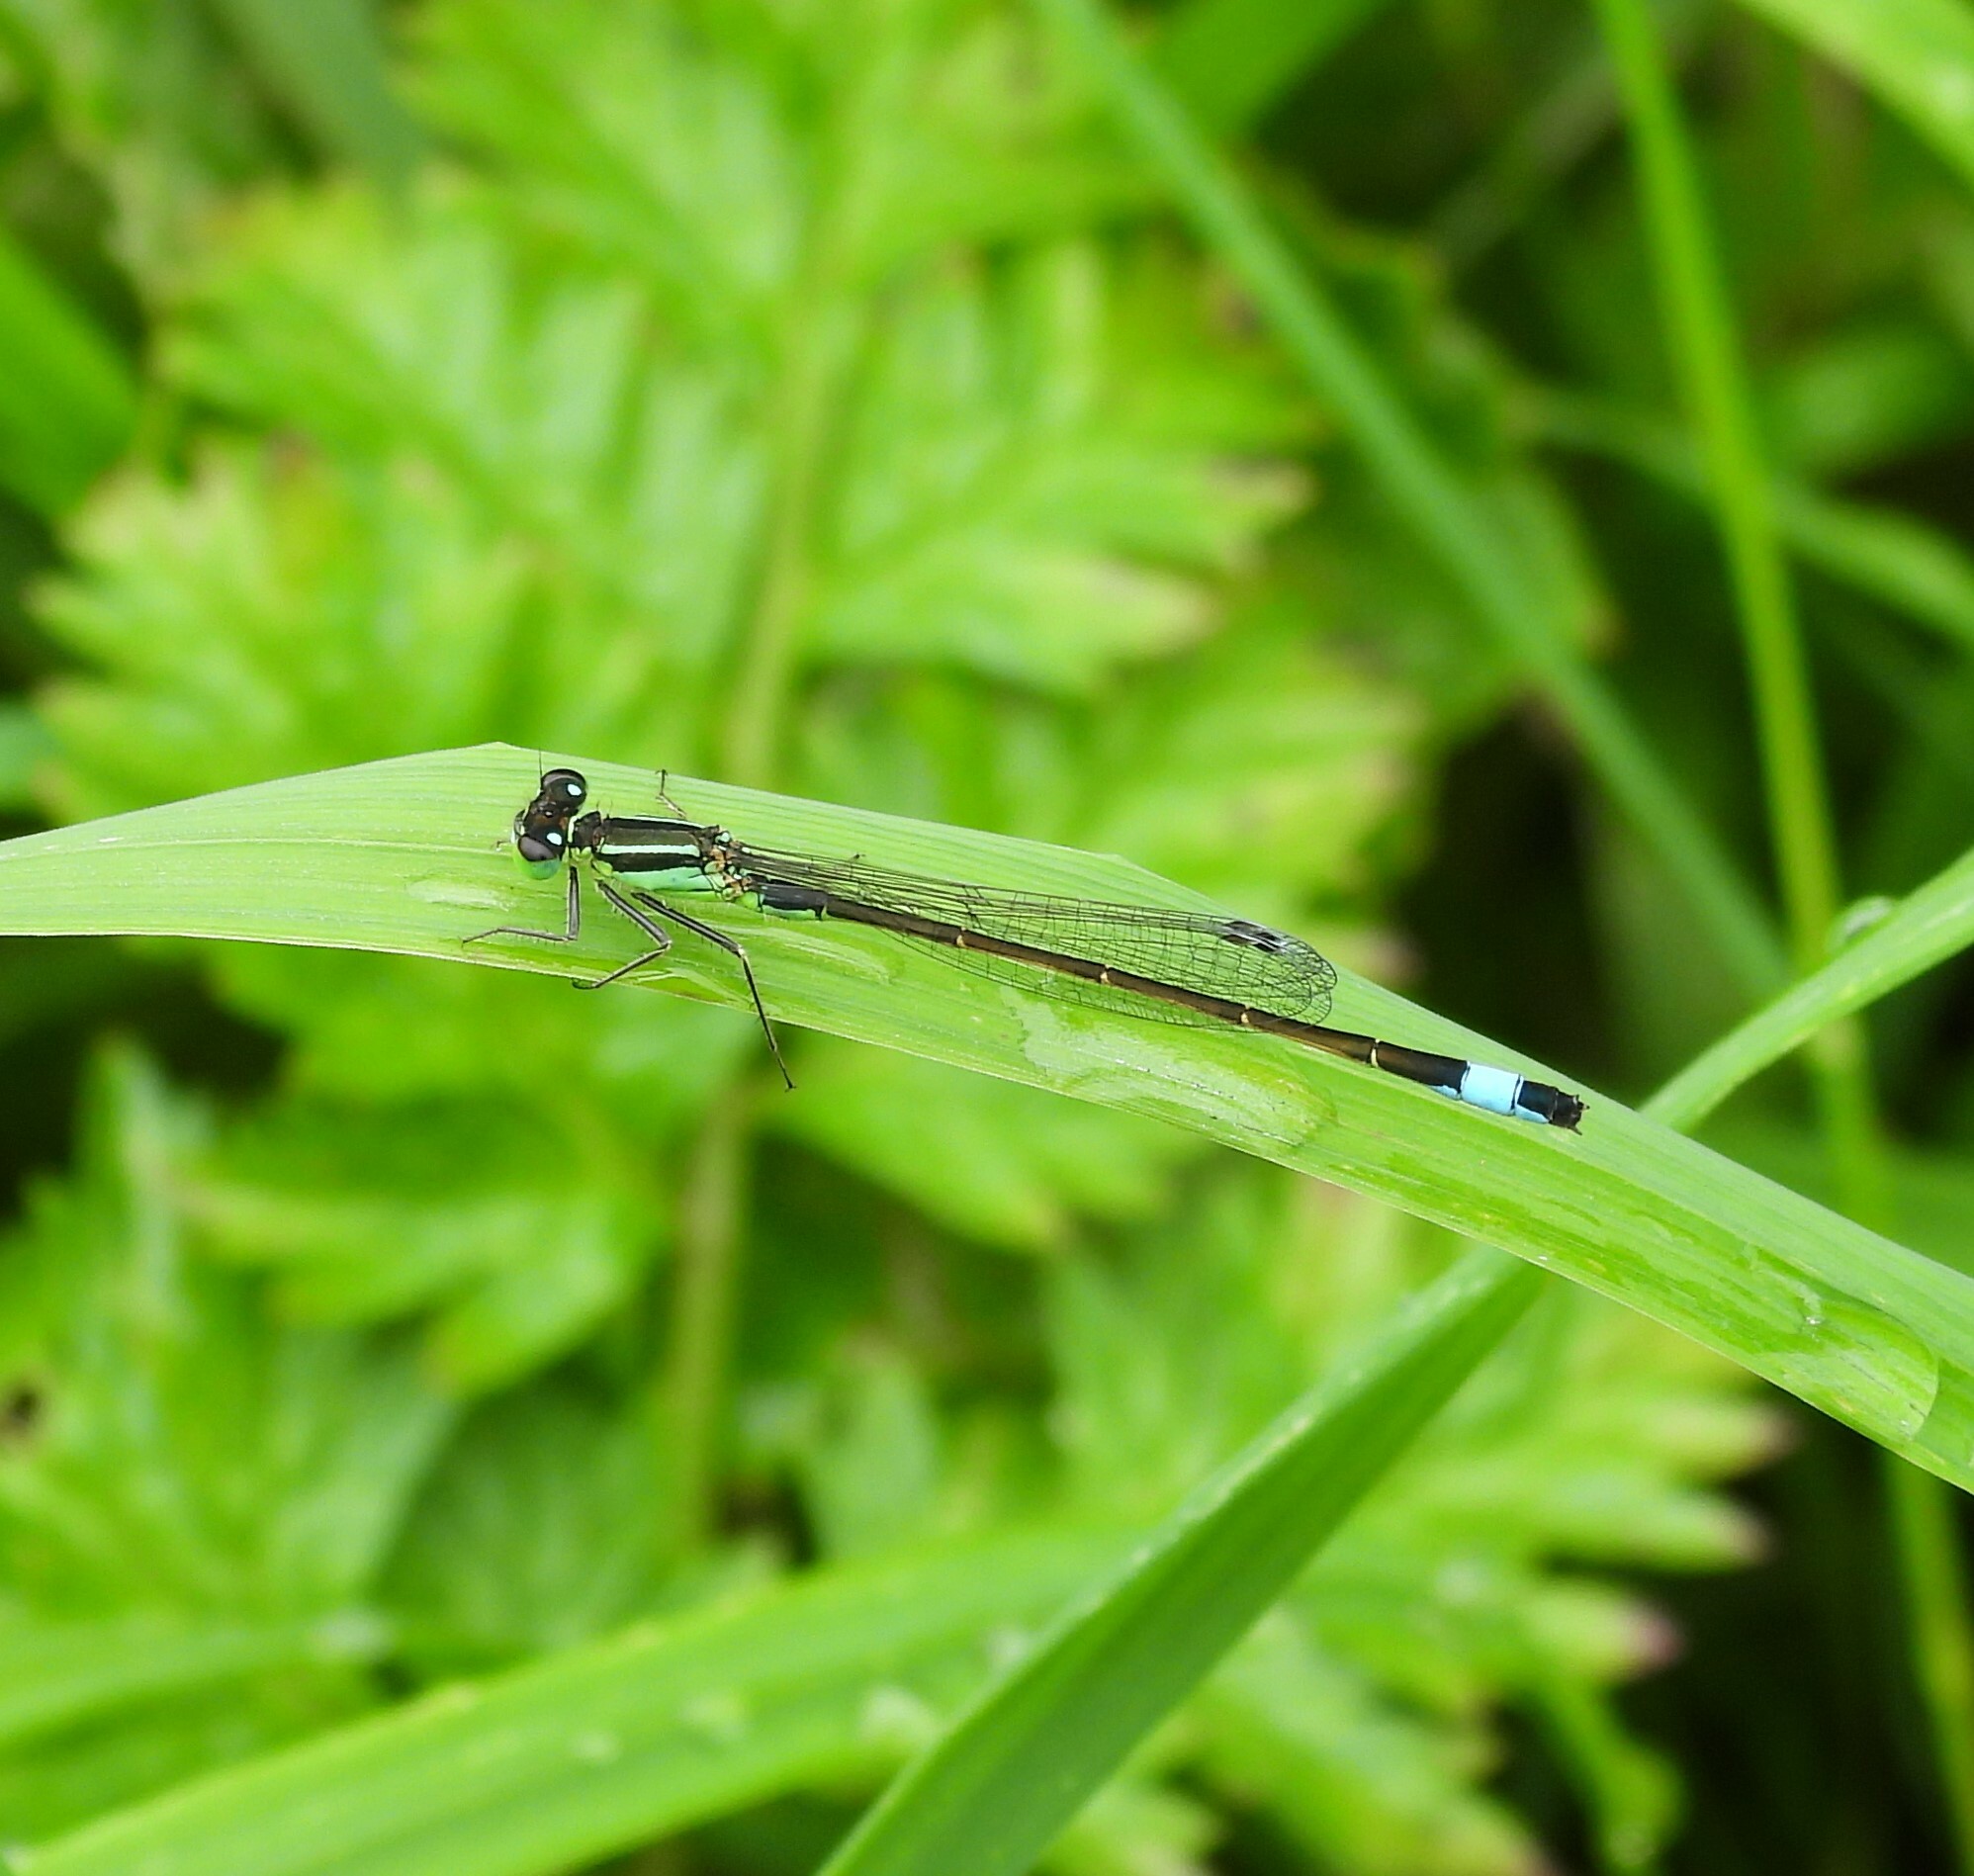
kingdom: Animalia
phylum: Arthropoda
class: Insecta
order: Odonata
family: Coenagrionidae
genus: Ischnura
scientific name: Ischnura elegans
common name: Blue-tailed damselfly
